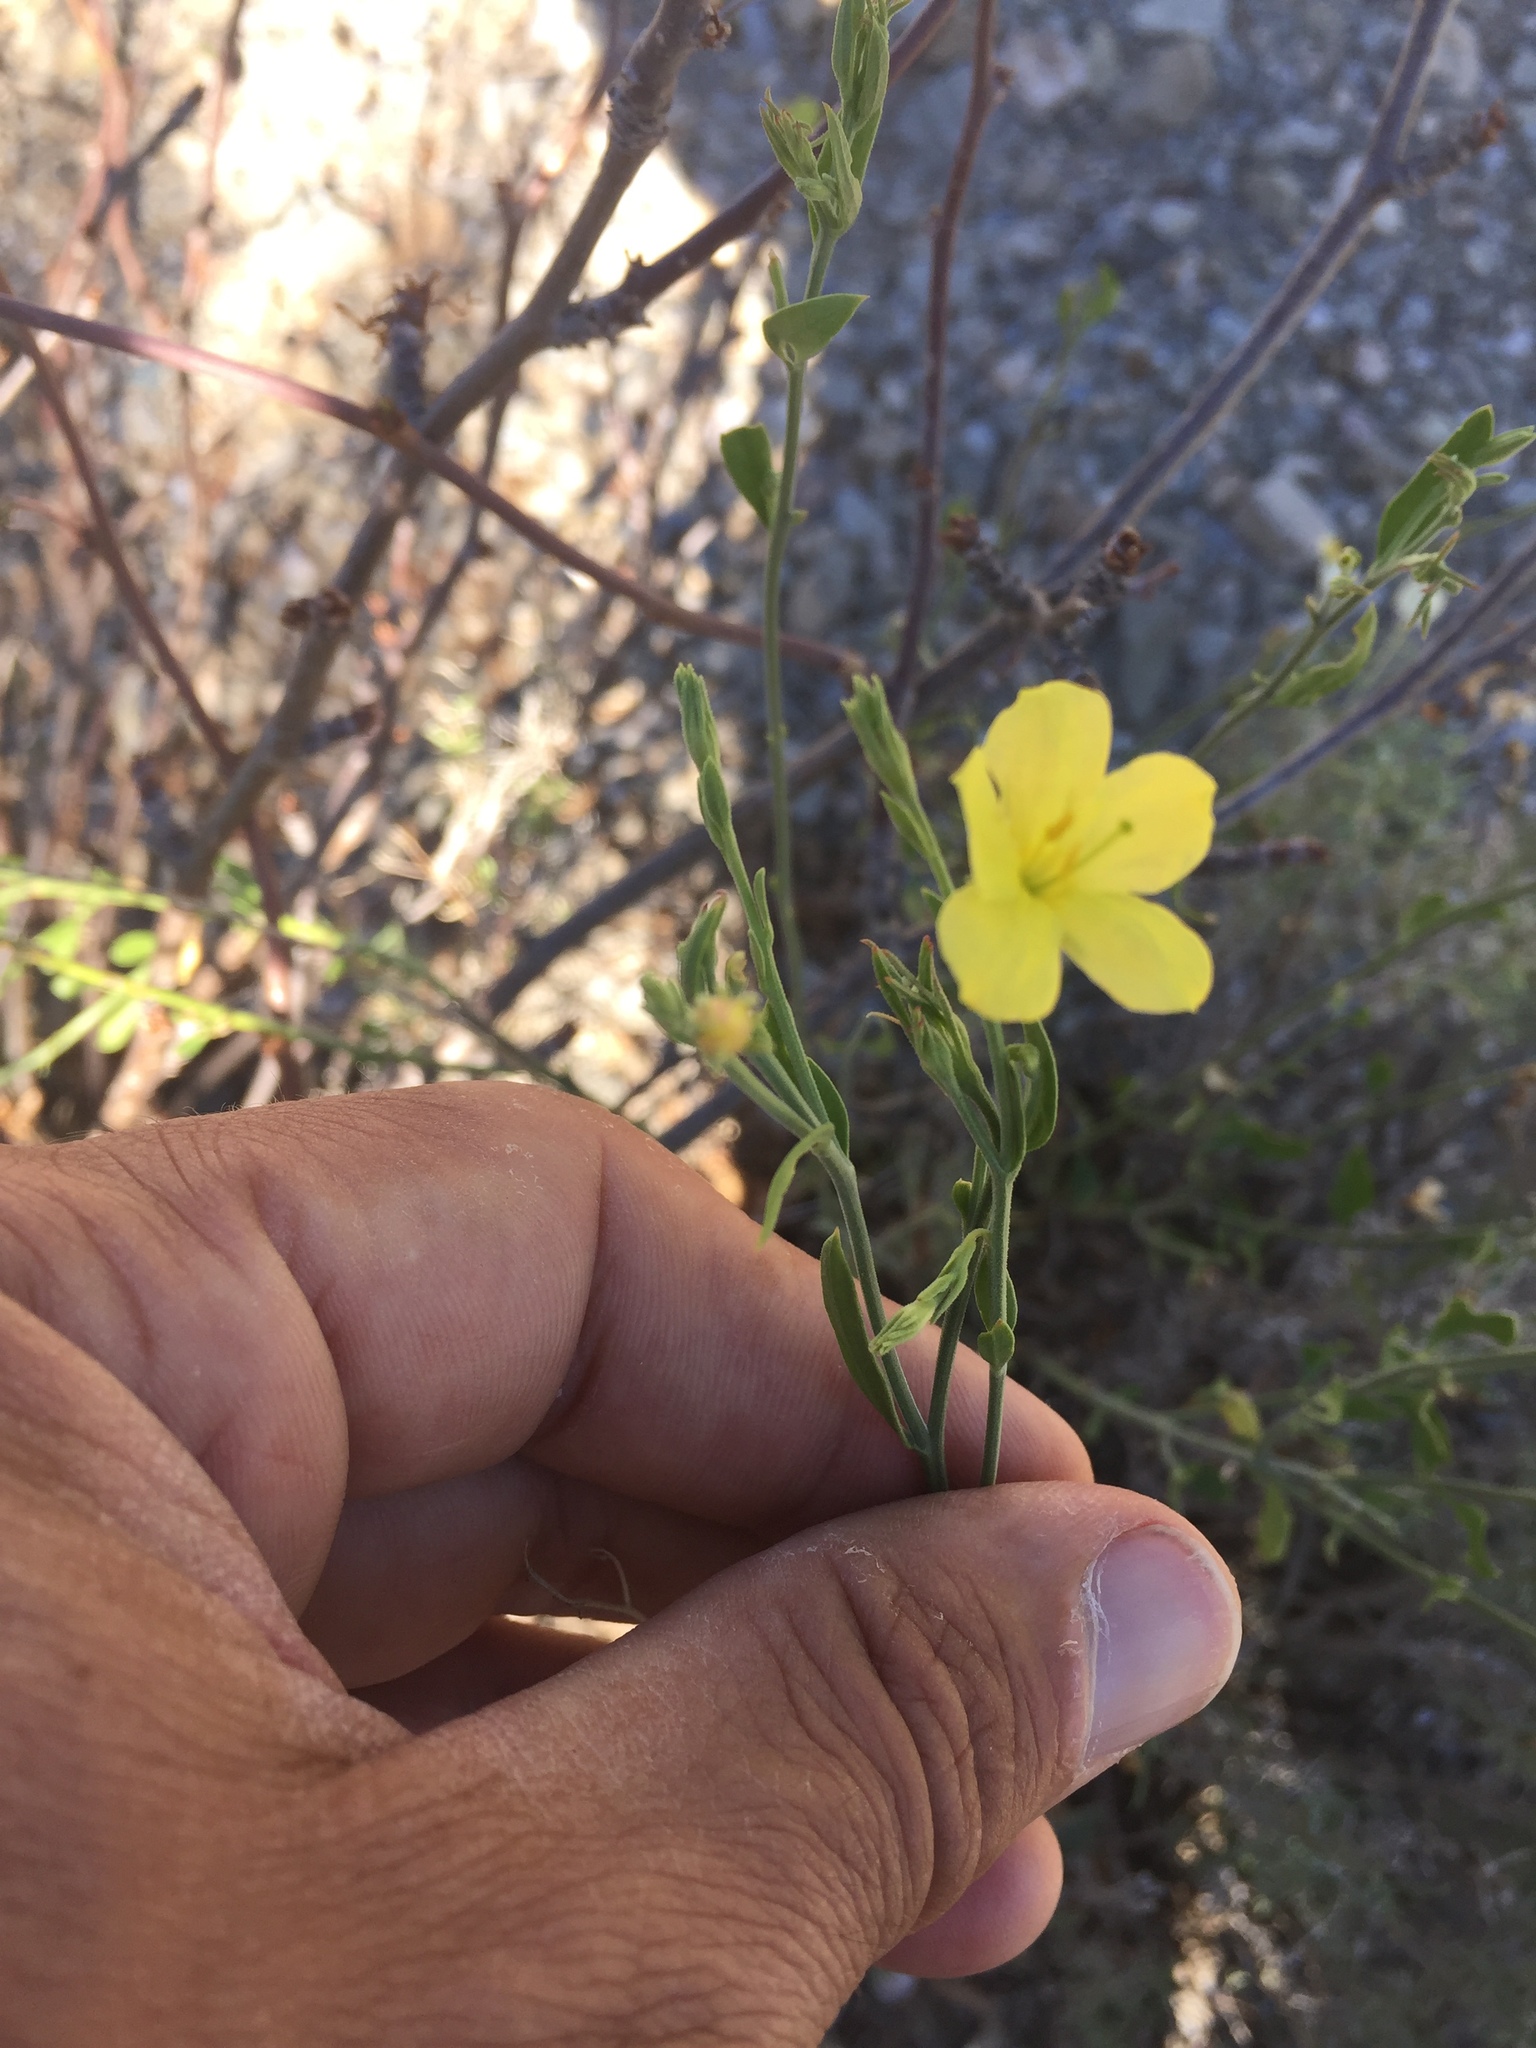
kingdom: Plantae
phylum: Tracheophyta
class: Magnoliopsida
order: Lamiales
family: Oleaceae
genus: Menodora
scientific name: Menodora scabra
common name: Rough menodora
